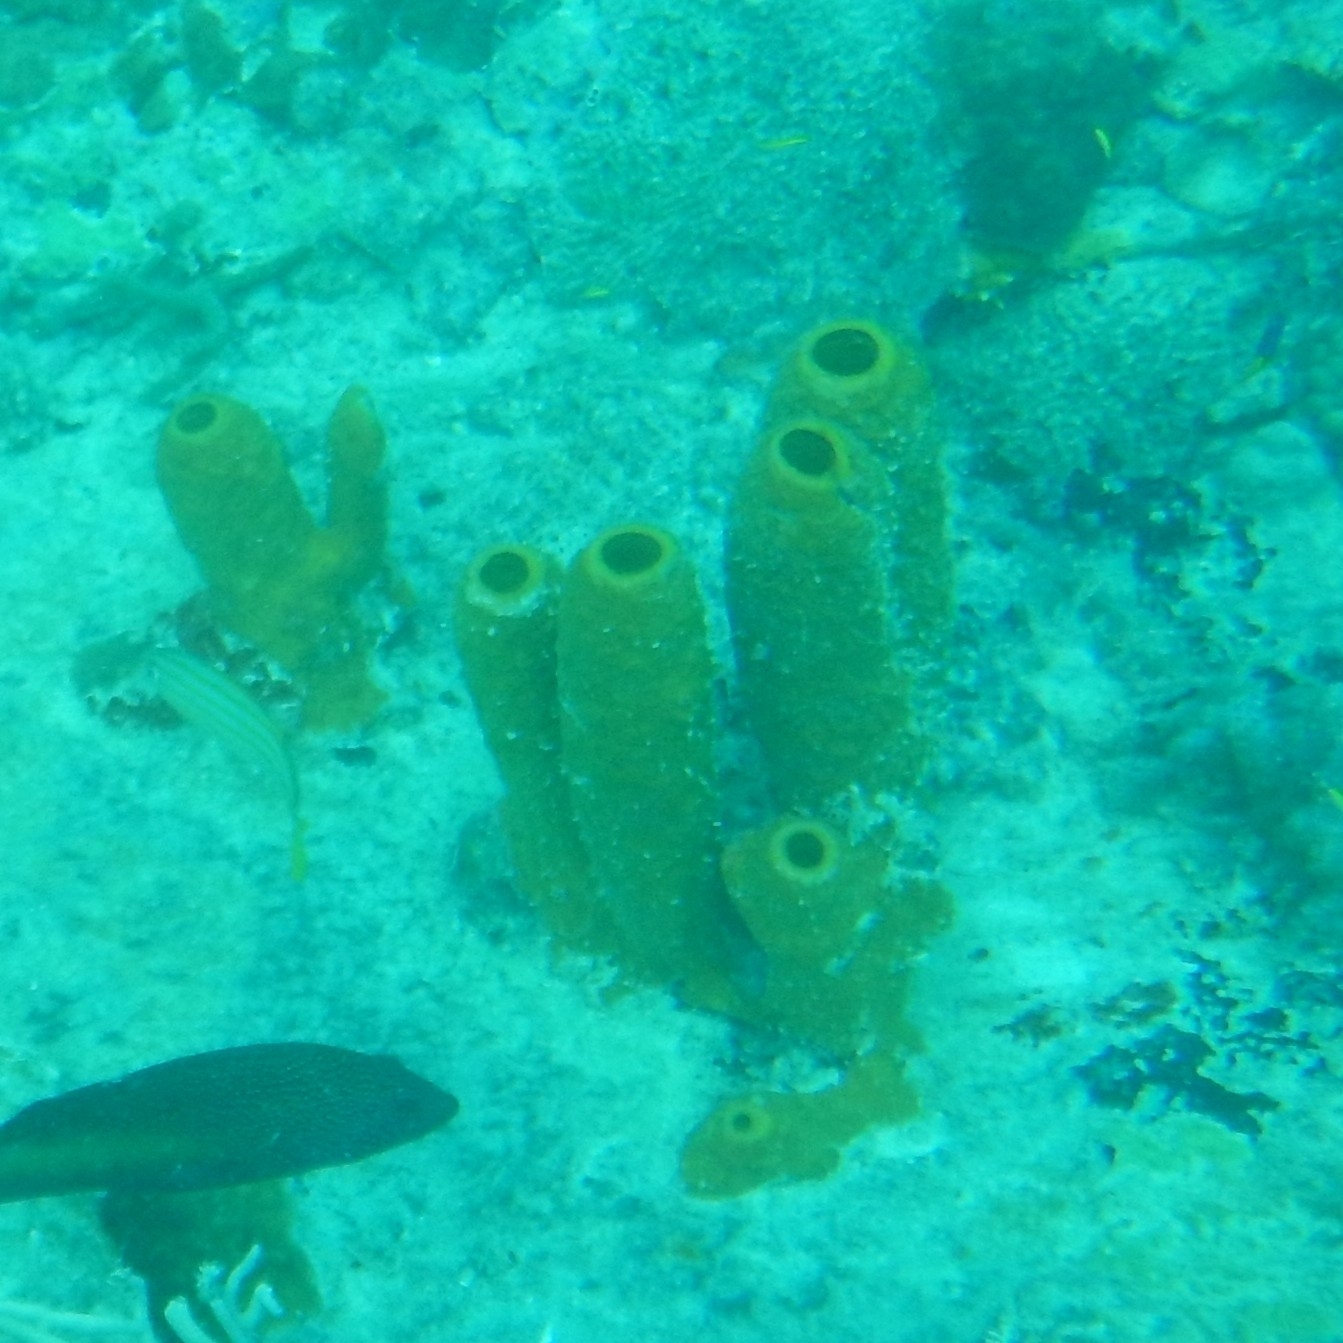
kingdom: Animalia
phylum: Porifera
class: Demospongiae
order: Verongiida
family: Aplysinidae
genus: Aplysina
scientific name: Aplysina fistularis
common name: Candle sponge
